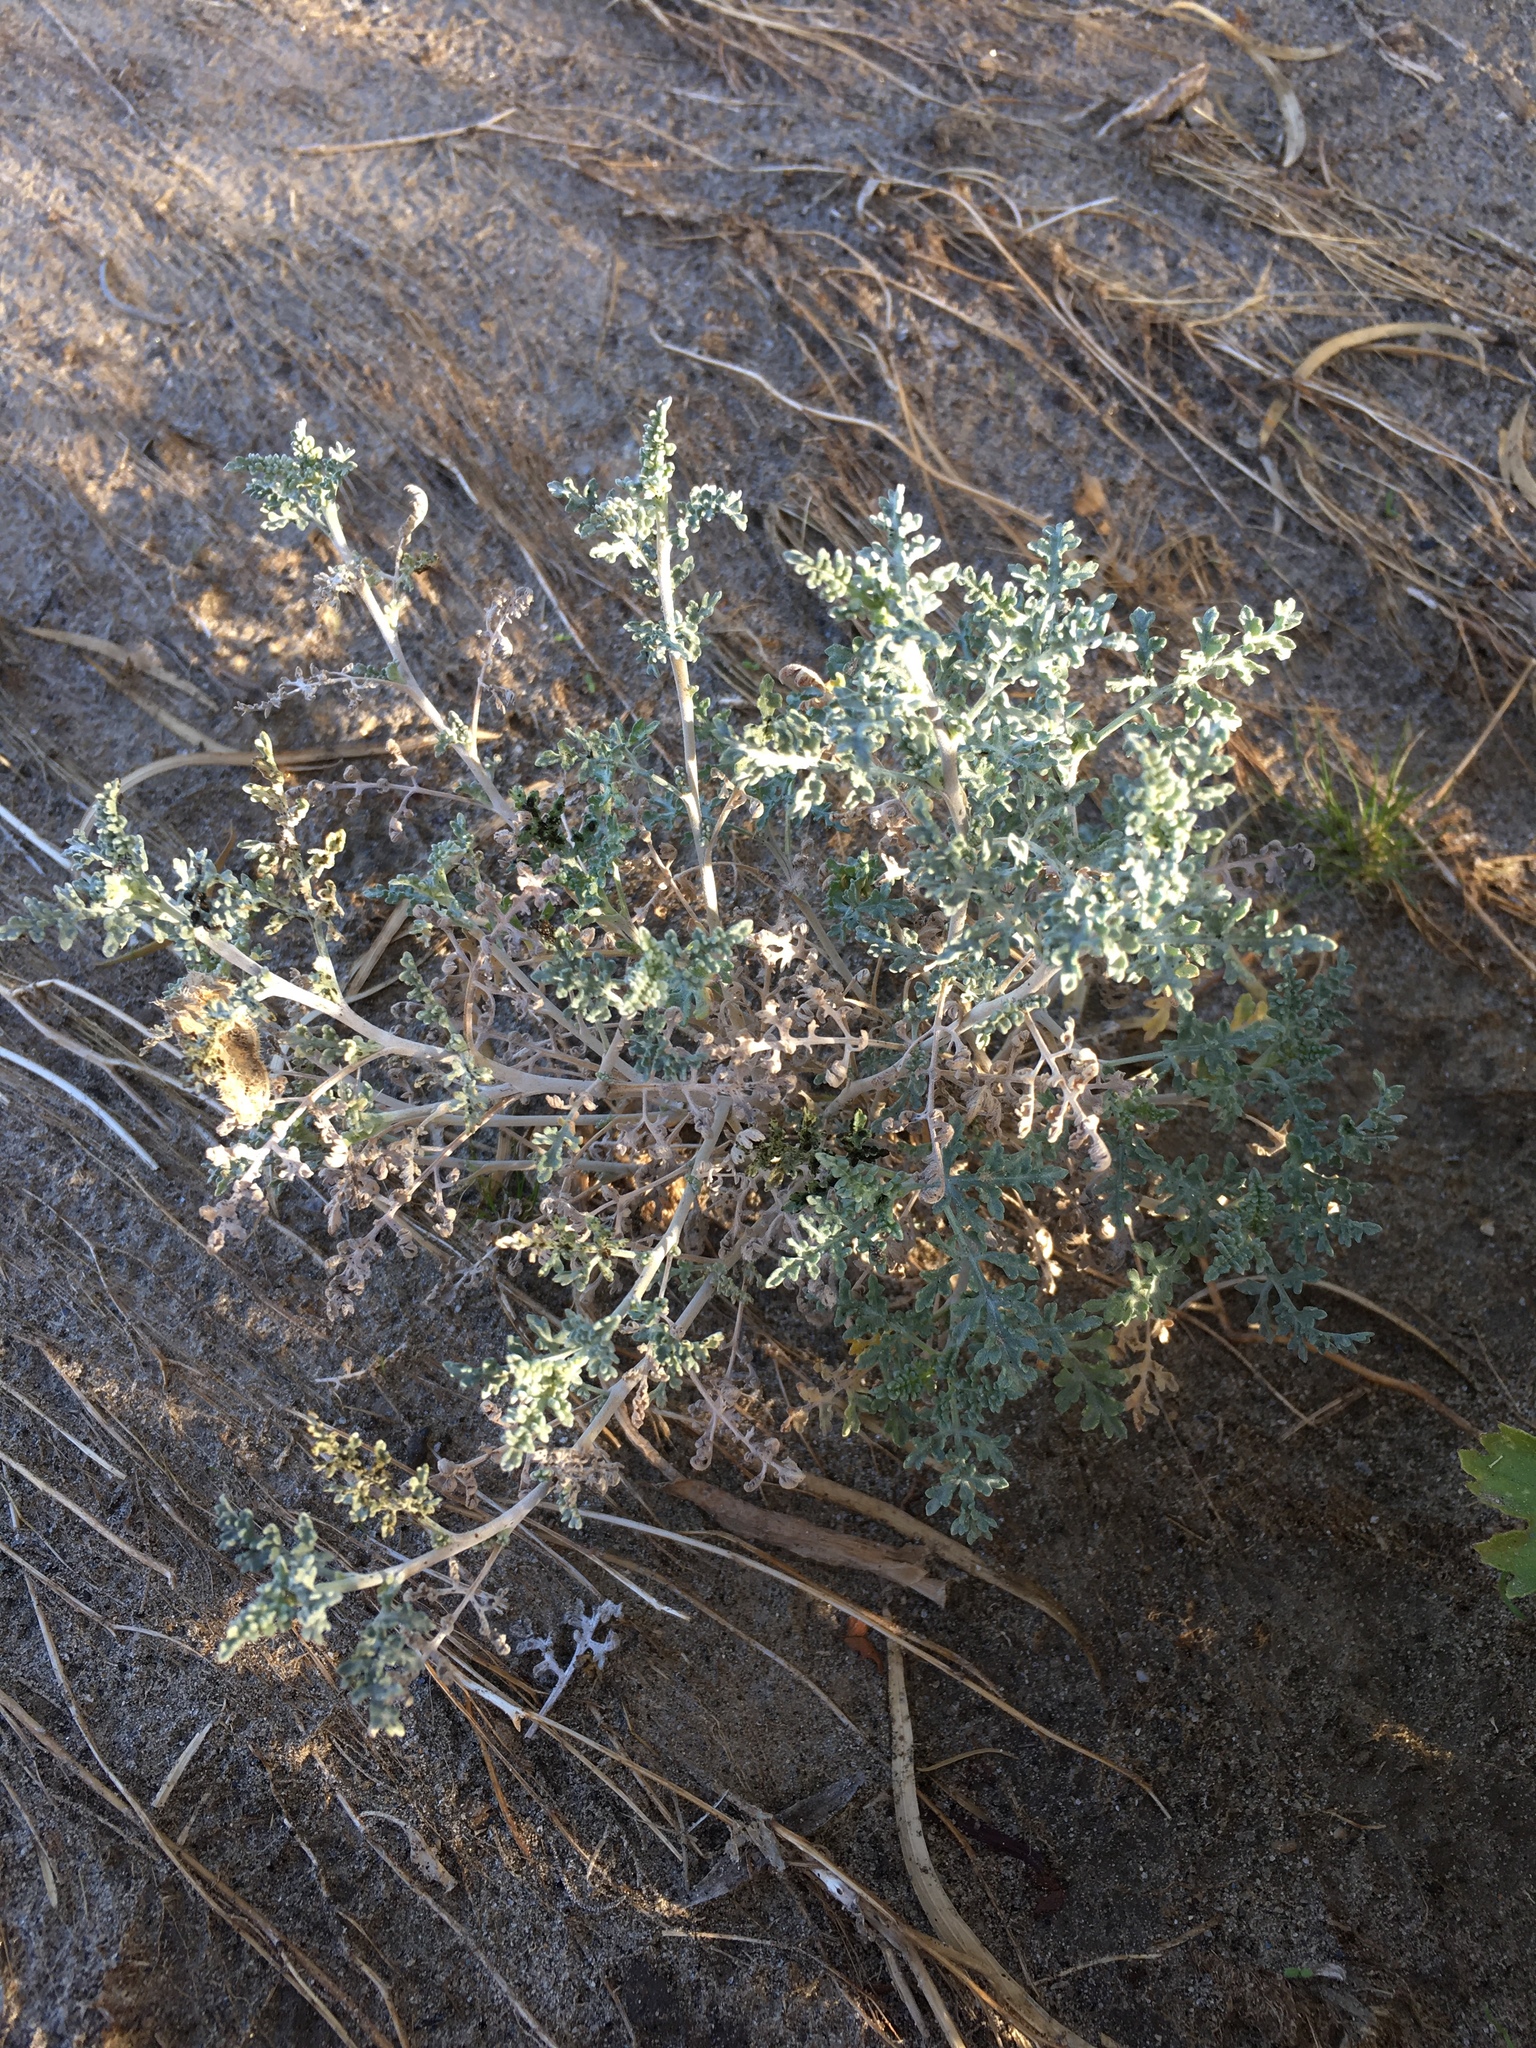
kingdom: Plantae
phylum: Tracheophyta
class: Magnoliopsida
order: Asterales
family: Asteraceae
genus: Ambrosia
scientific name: Ambrosia dumosa
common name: Bur-sage
